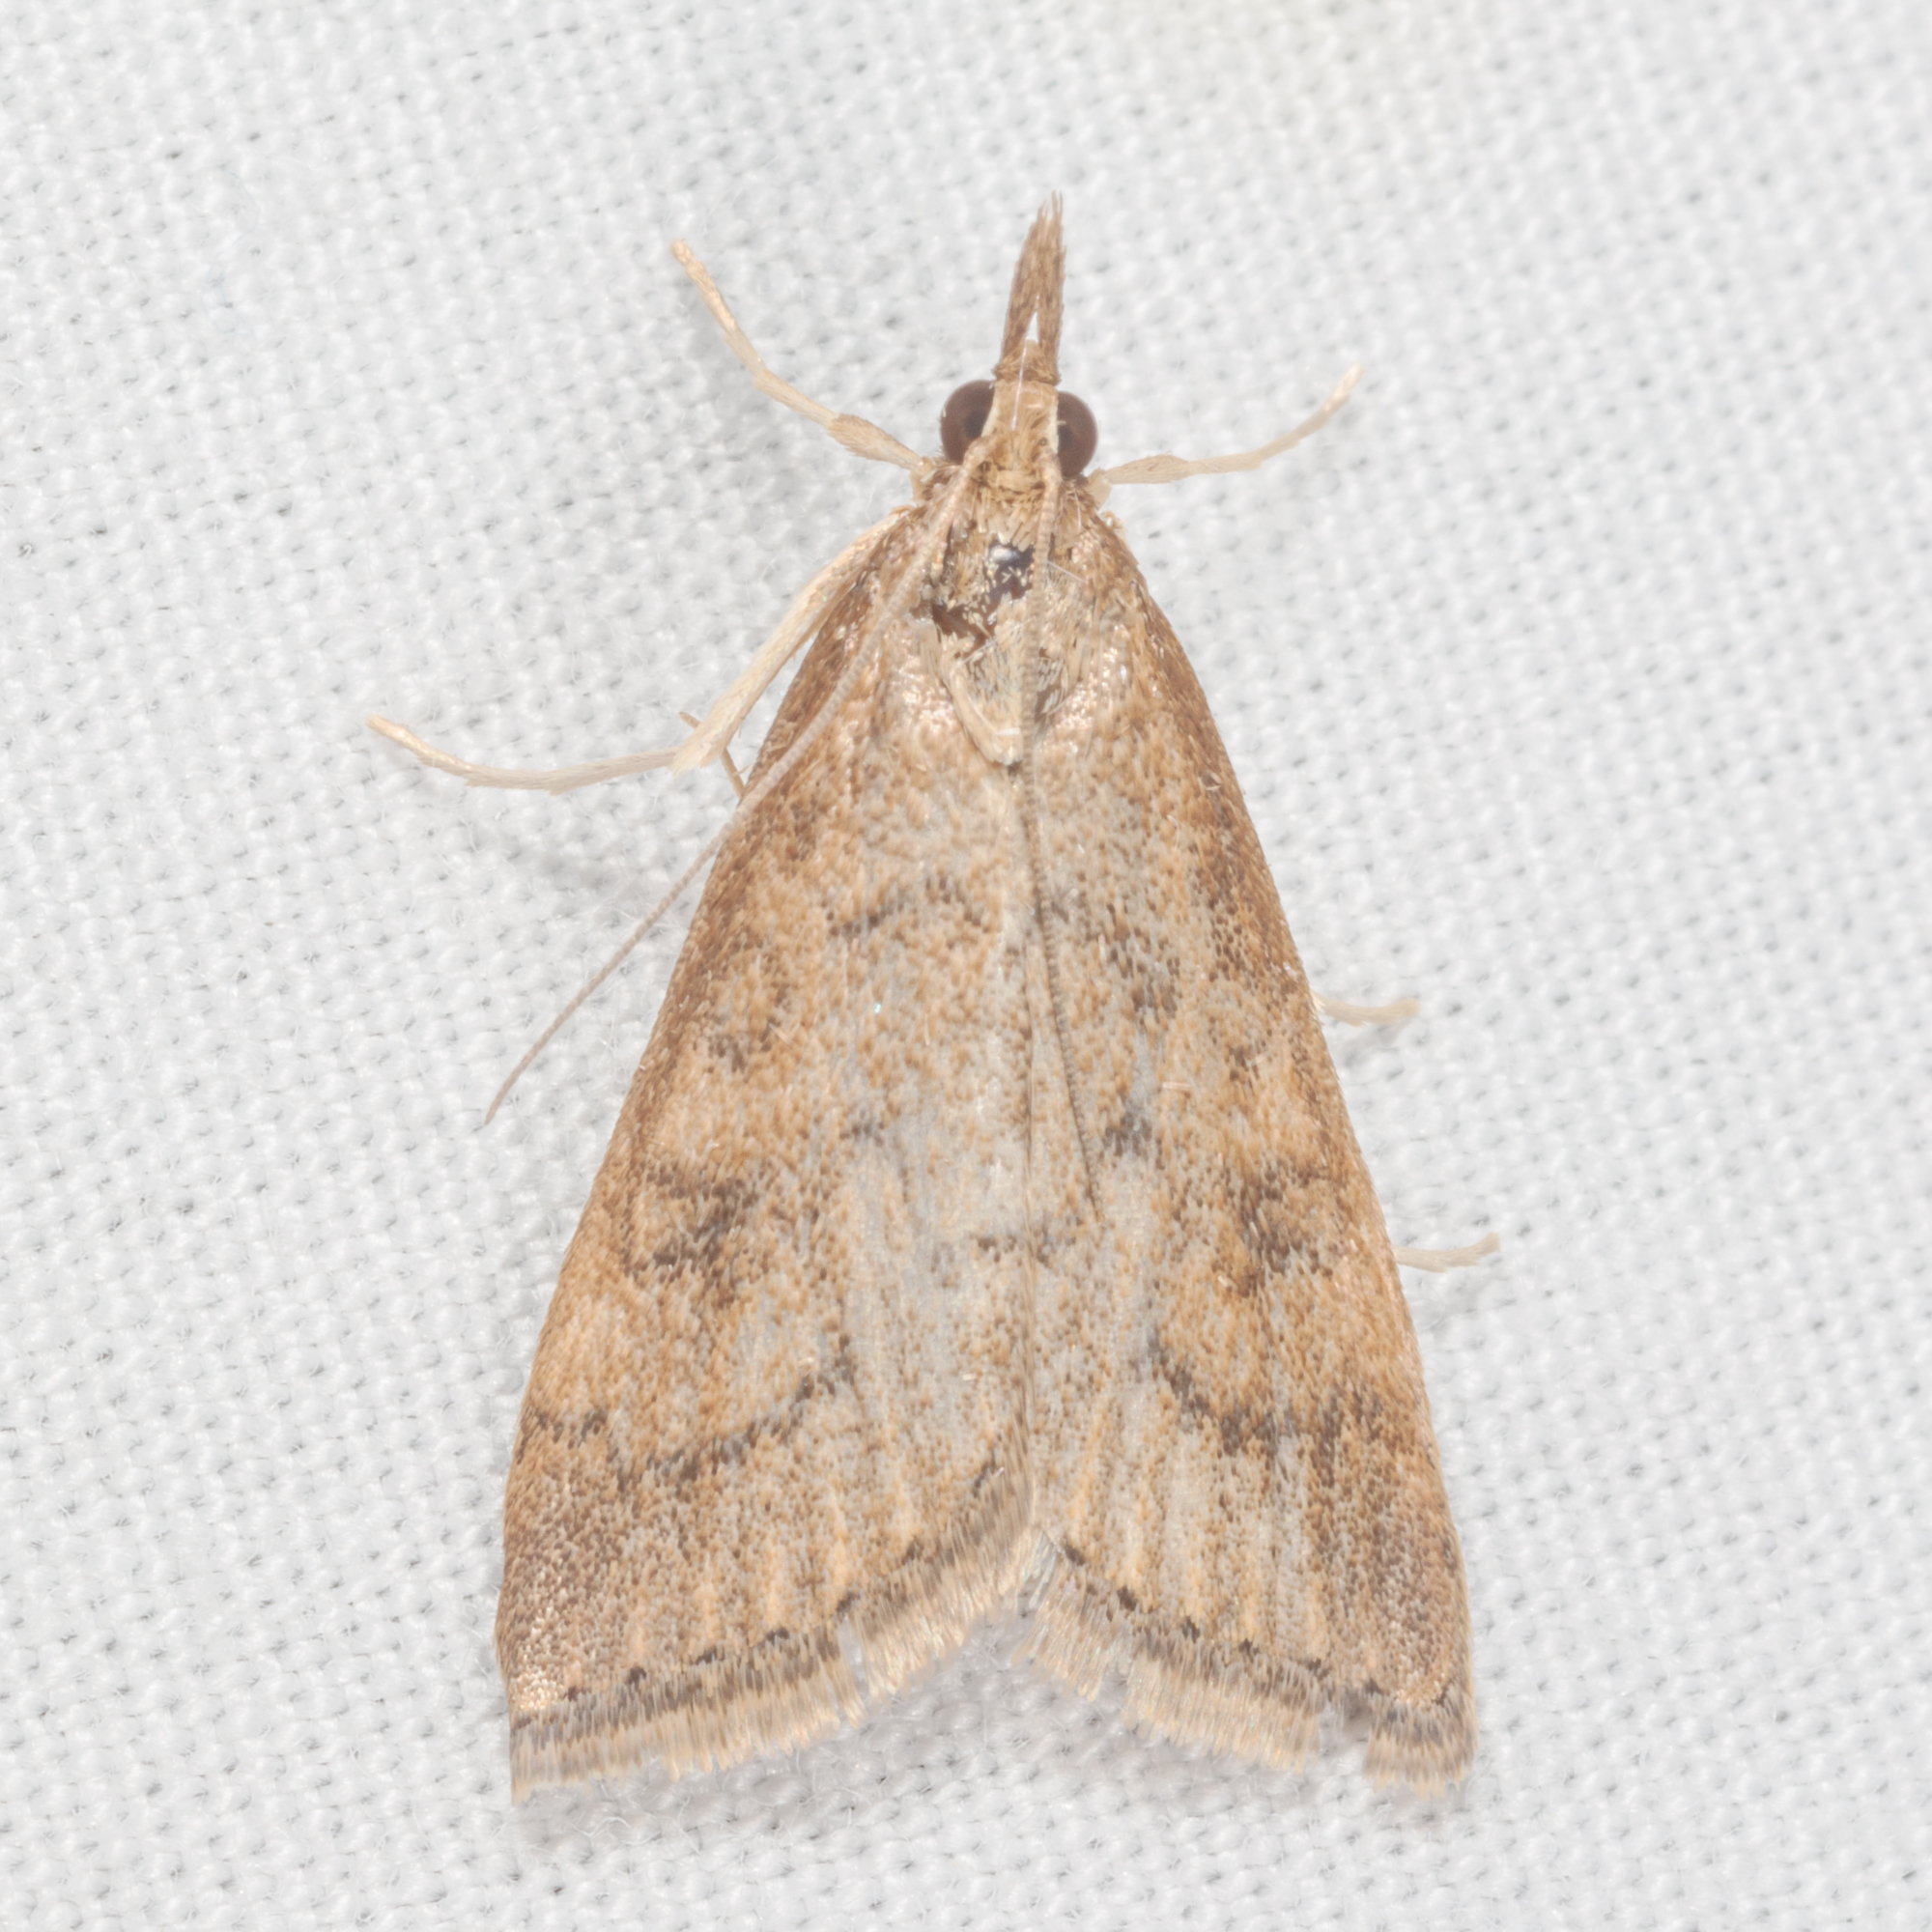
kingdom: Animalia
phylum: Arthropoda
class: Insecta
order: Lepidoptera
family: Crambidae
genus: Udea
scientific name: Udea rubigalis
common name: Celery leaftier moth
